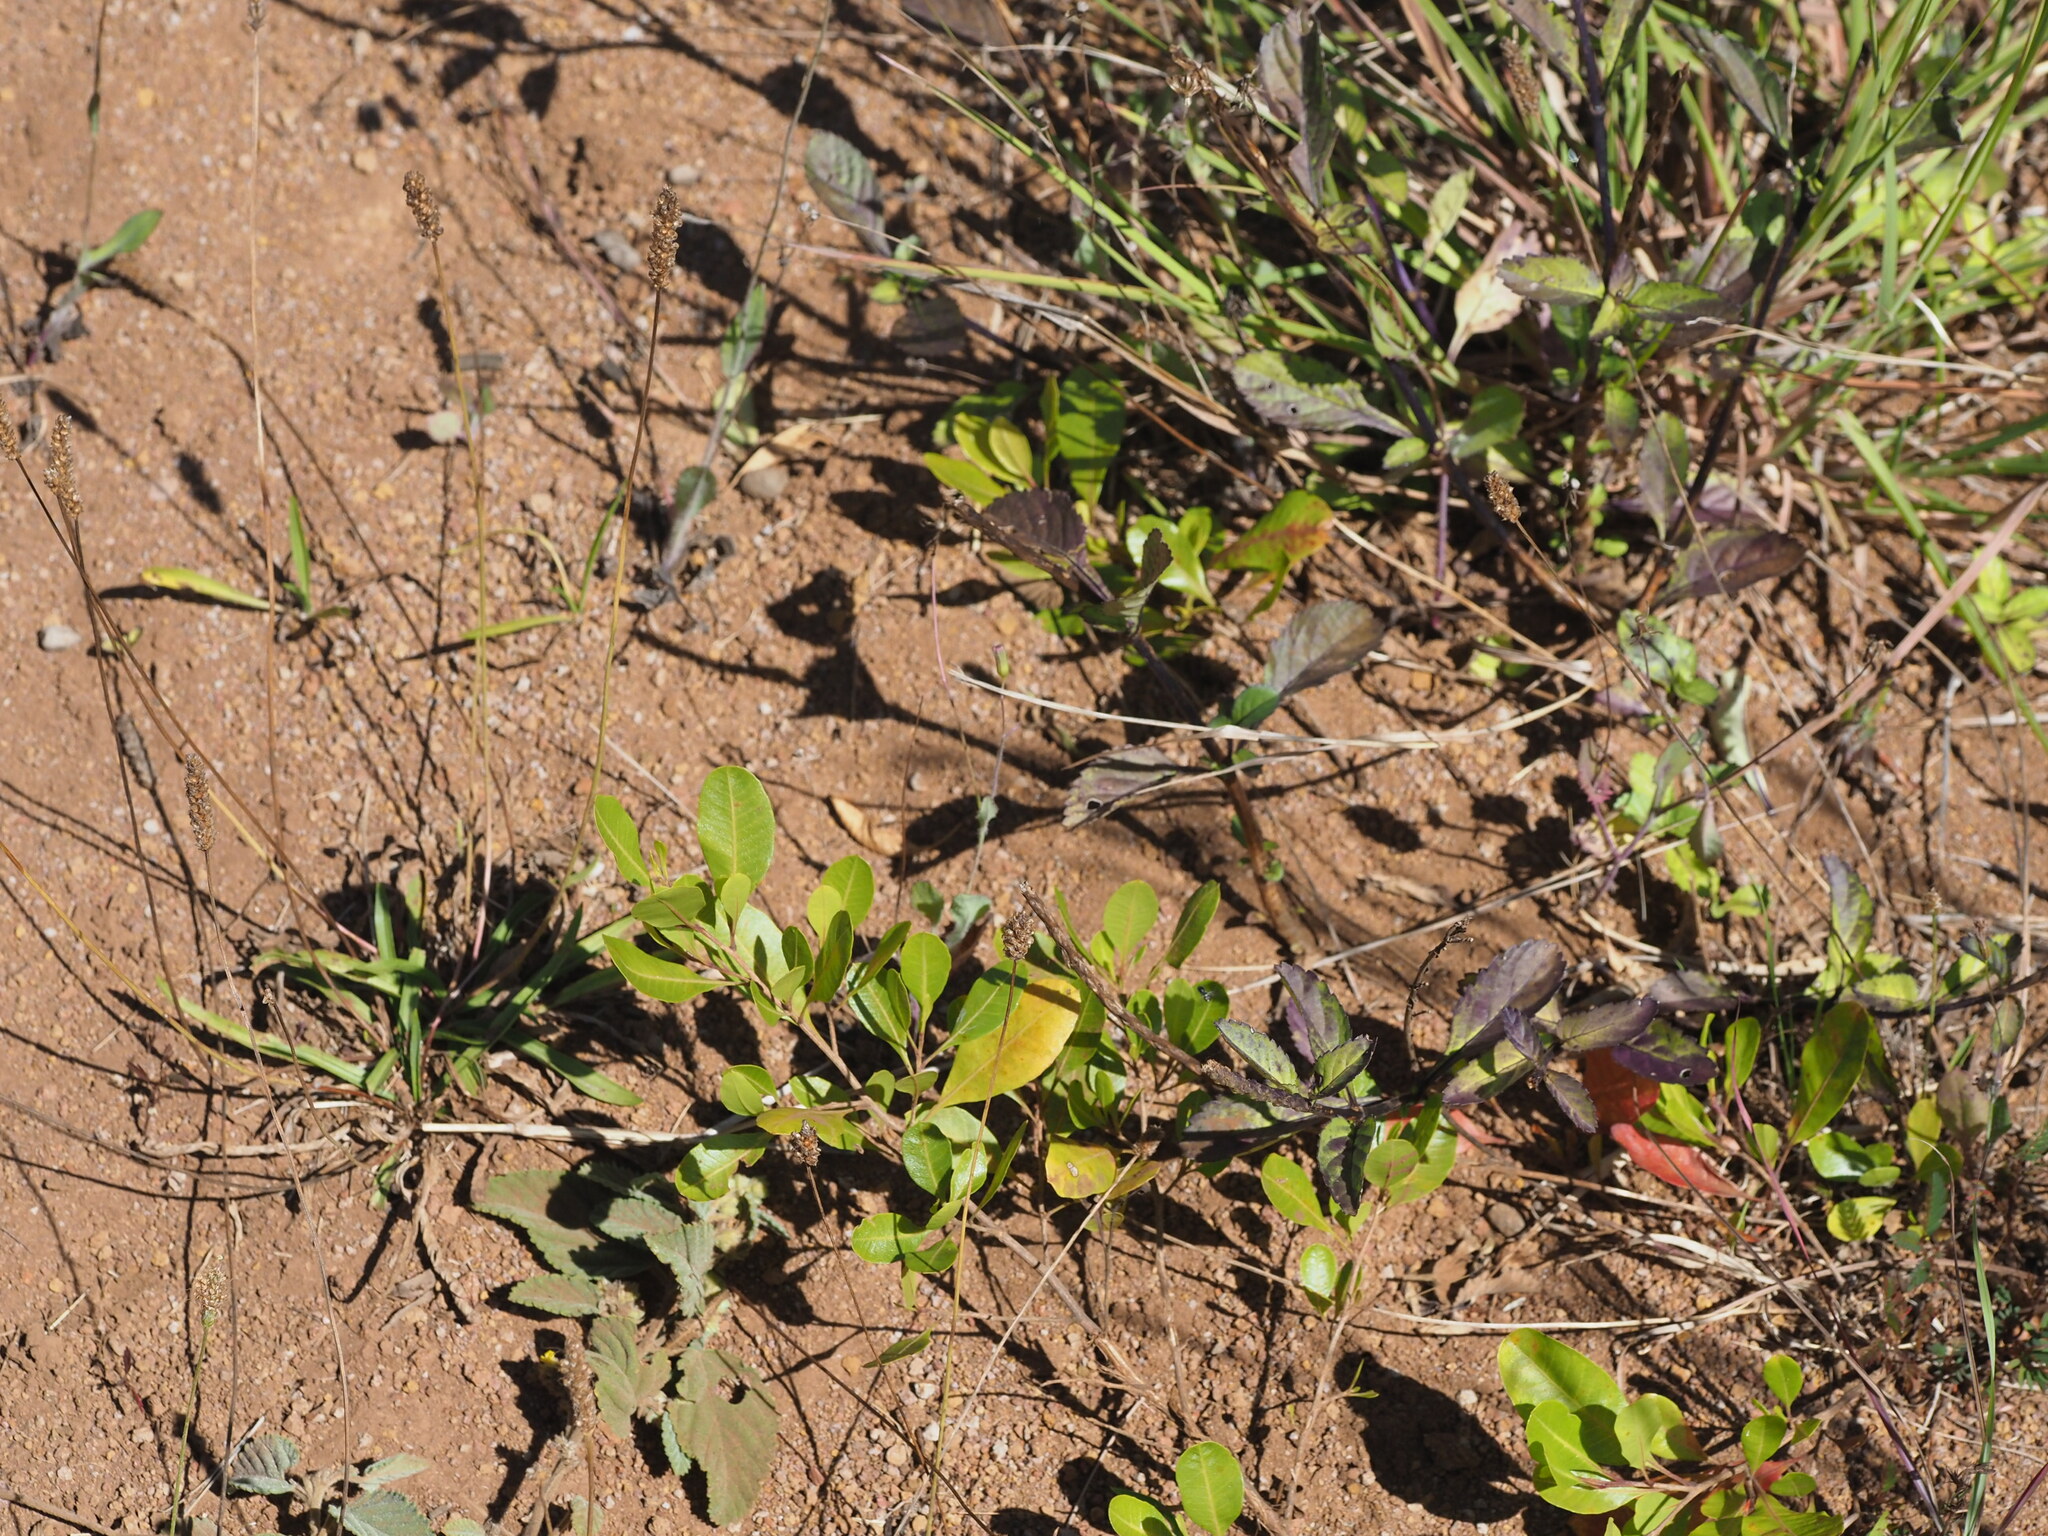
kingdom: Plantae
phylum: Tracheophyta
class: Magnoliopsida
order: Lamiales
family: Plantaginaceae
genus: Plantago
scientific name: Plantago lanceolata
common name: Ribwort plantain
